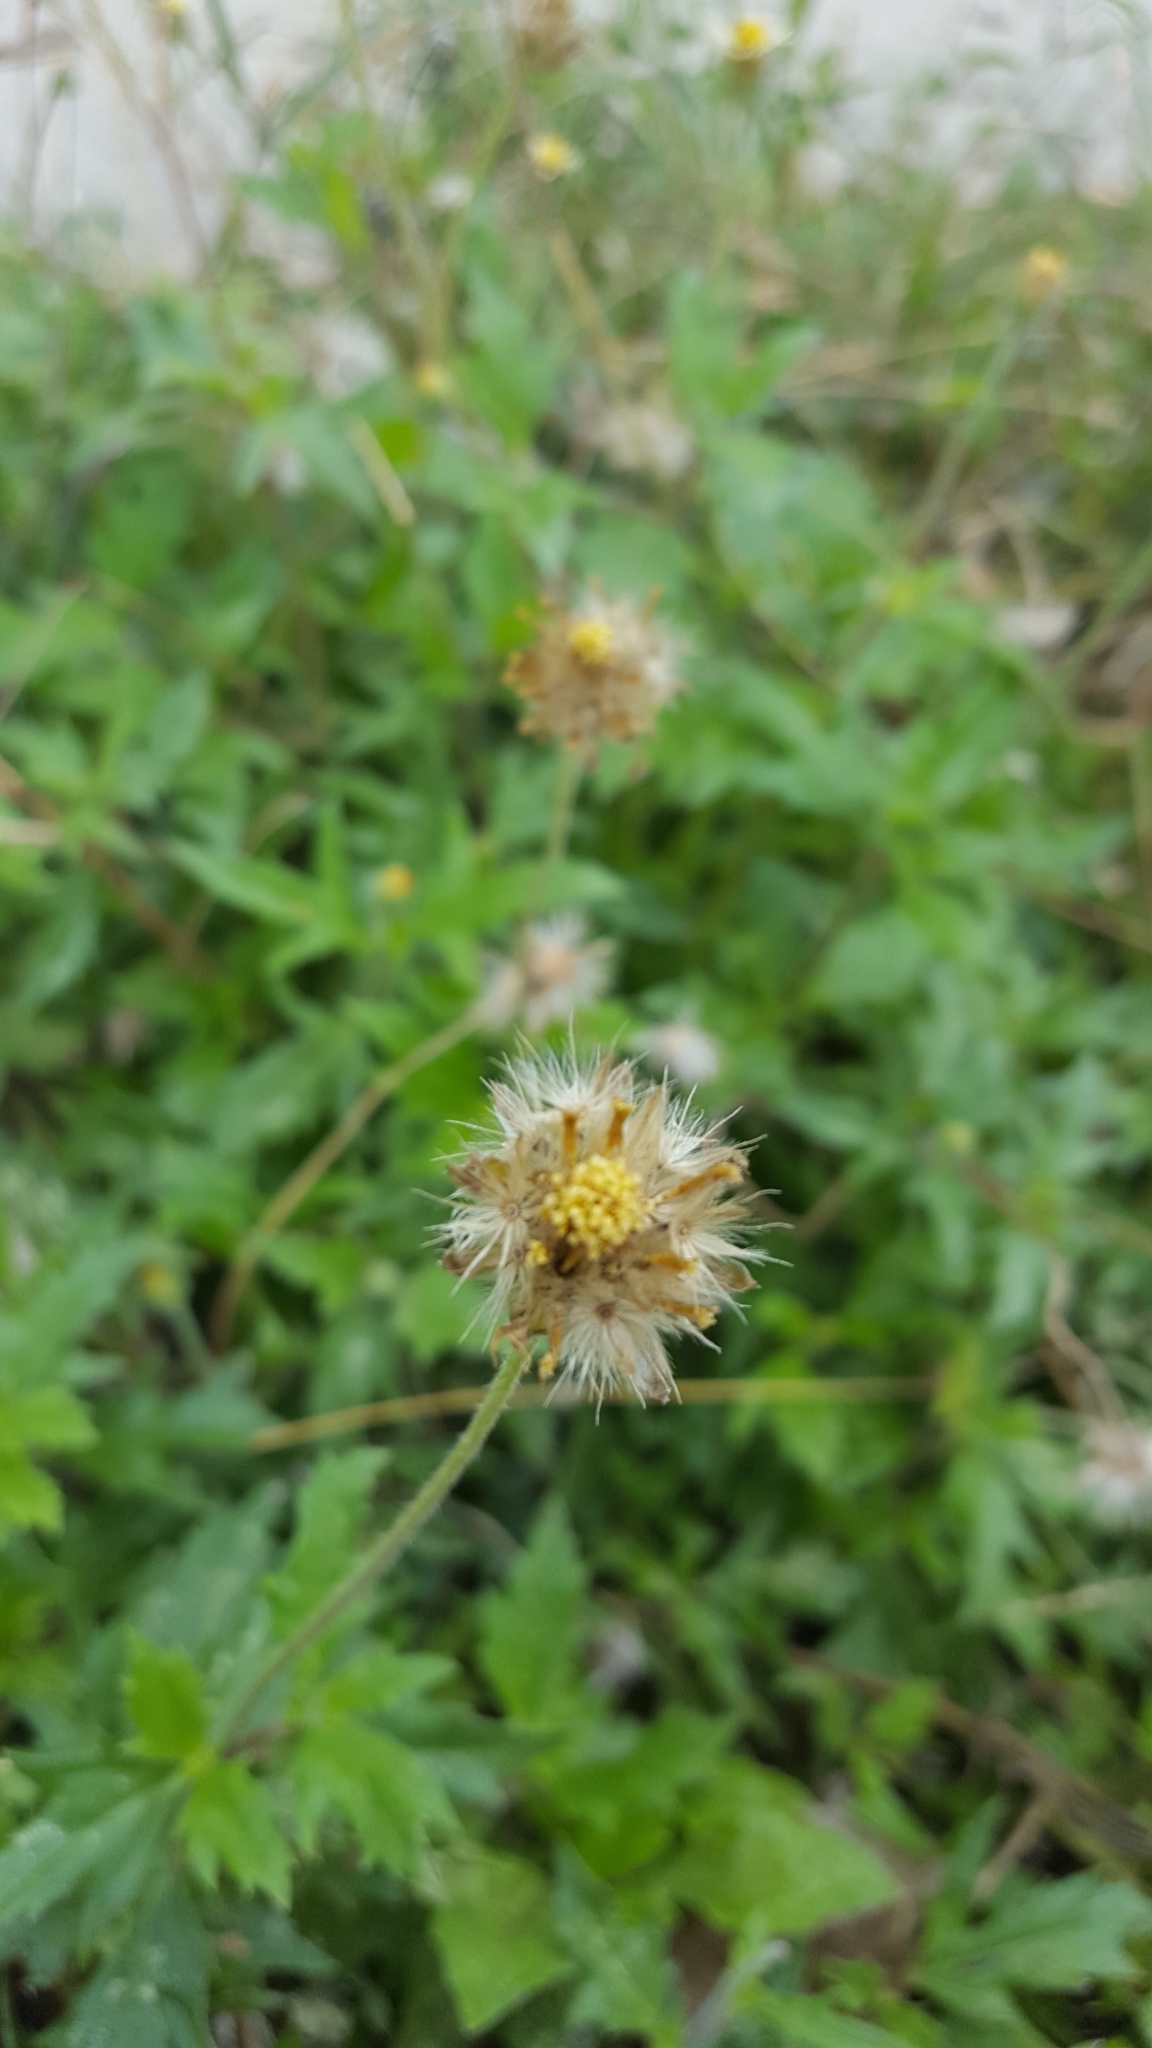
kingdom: Plantae
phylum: Tracheophyta
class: Magnoliopsida
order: Asterales
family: Asteraceae
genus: Tridax
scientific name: Tridax procumbens
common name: Coatbuttons
